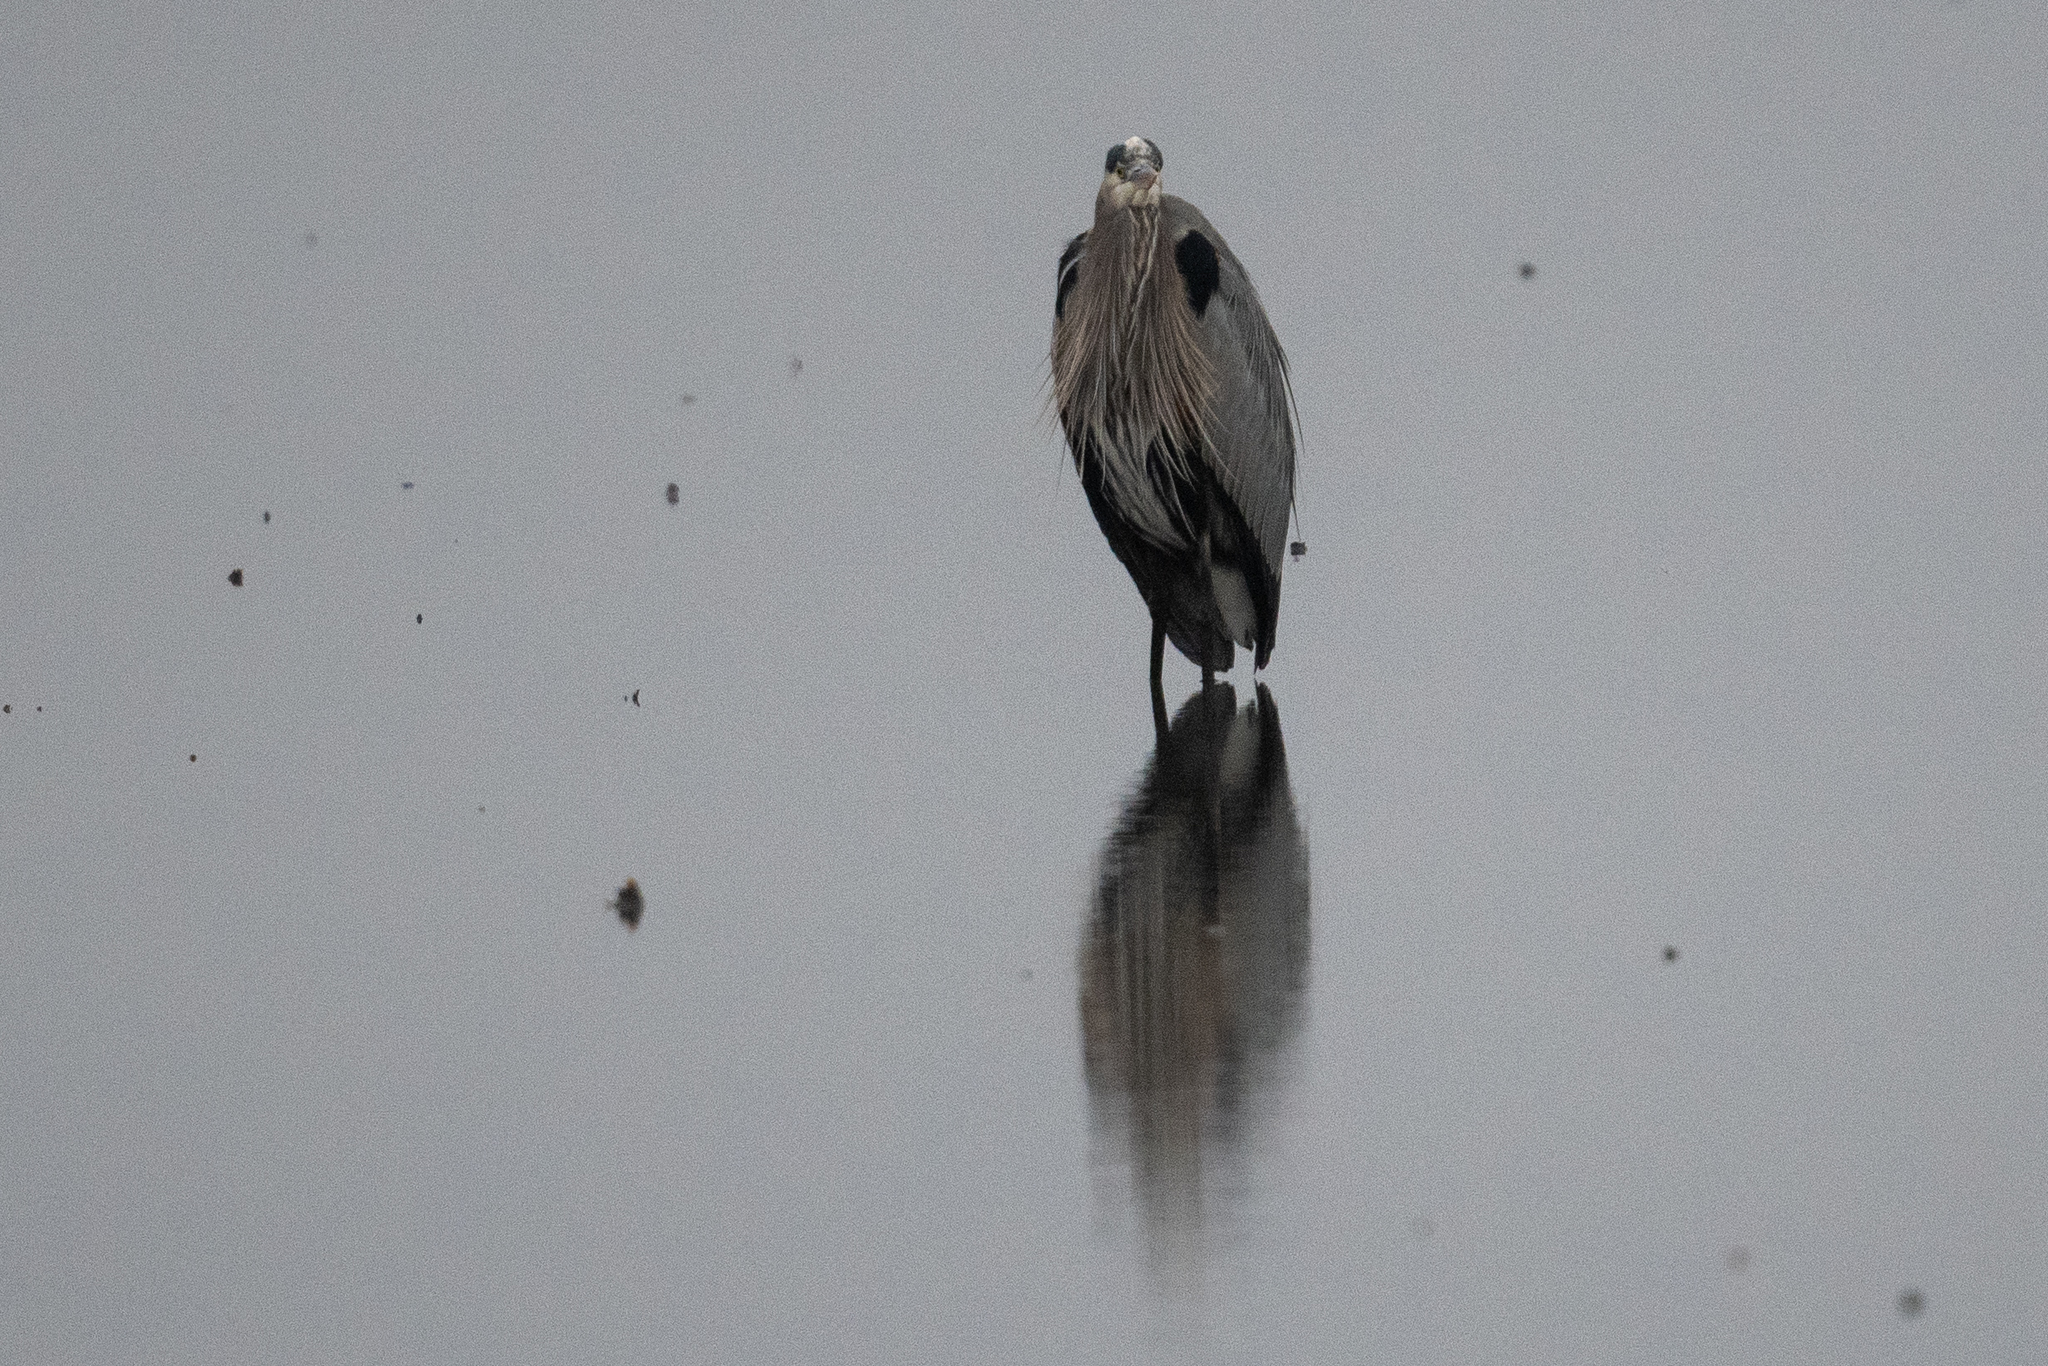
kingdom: Animalia
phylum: Chordata
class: Aves
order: Pelecaniformes
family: Ardeidae
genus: Ardea
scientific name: Ardea herodias
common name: Great blue heron
